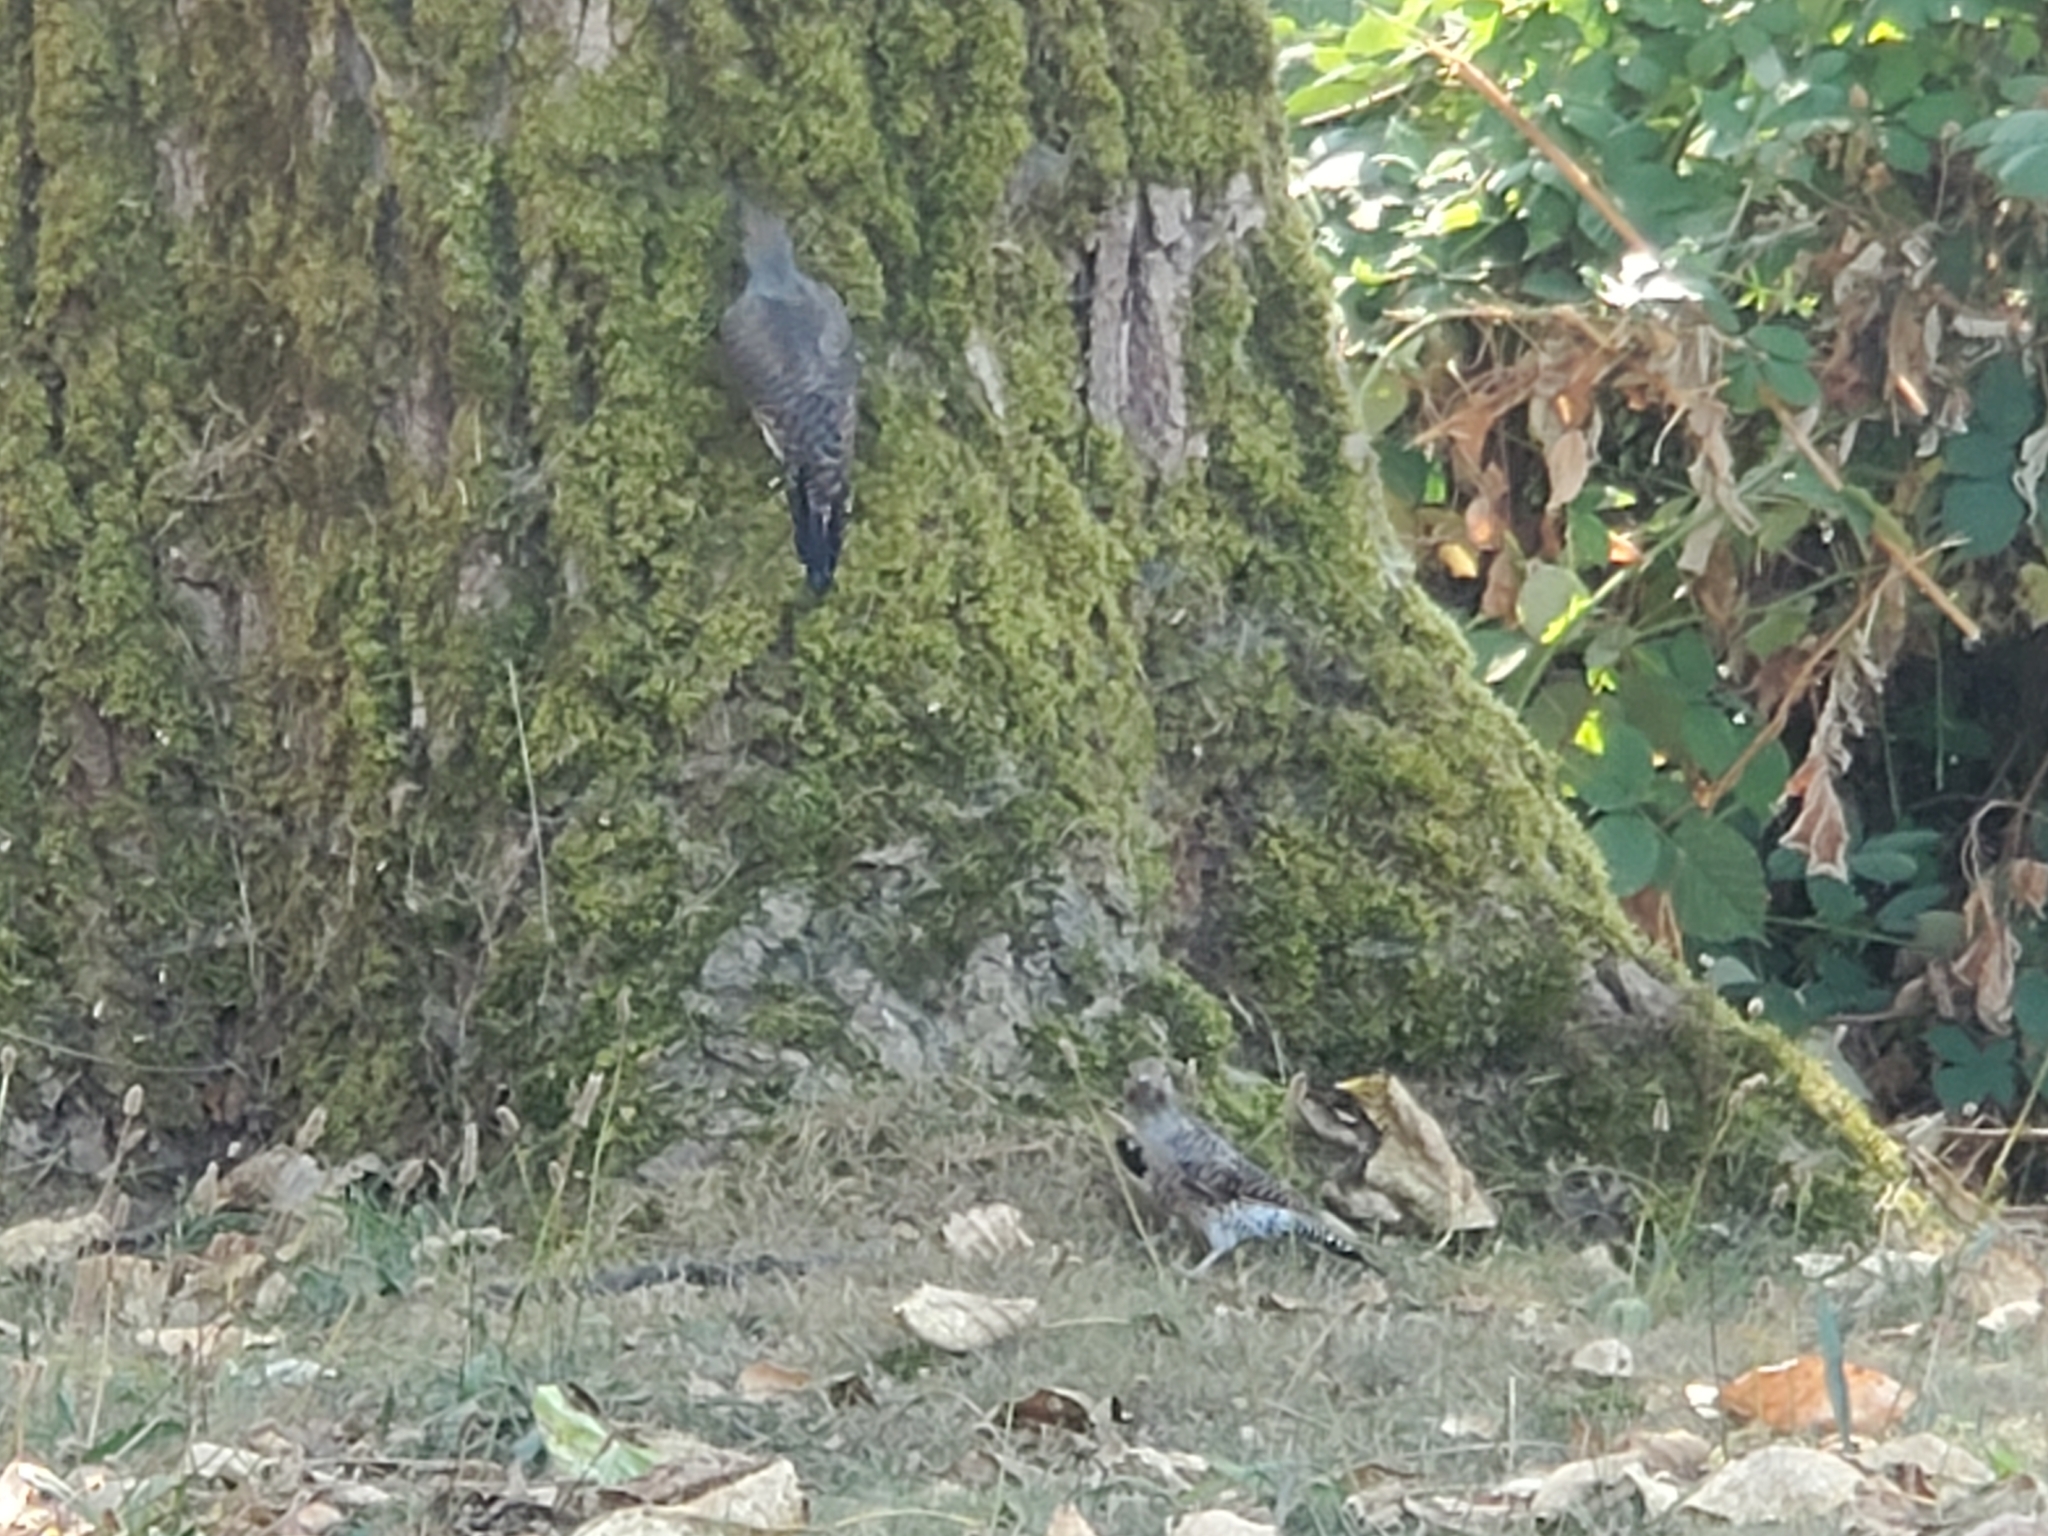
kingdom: Animalia
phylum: Chordata
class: Aves
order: Piciformes
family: Picidae
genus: Colaptes
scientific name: Colaptes auratus
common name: Northern flicker
